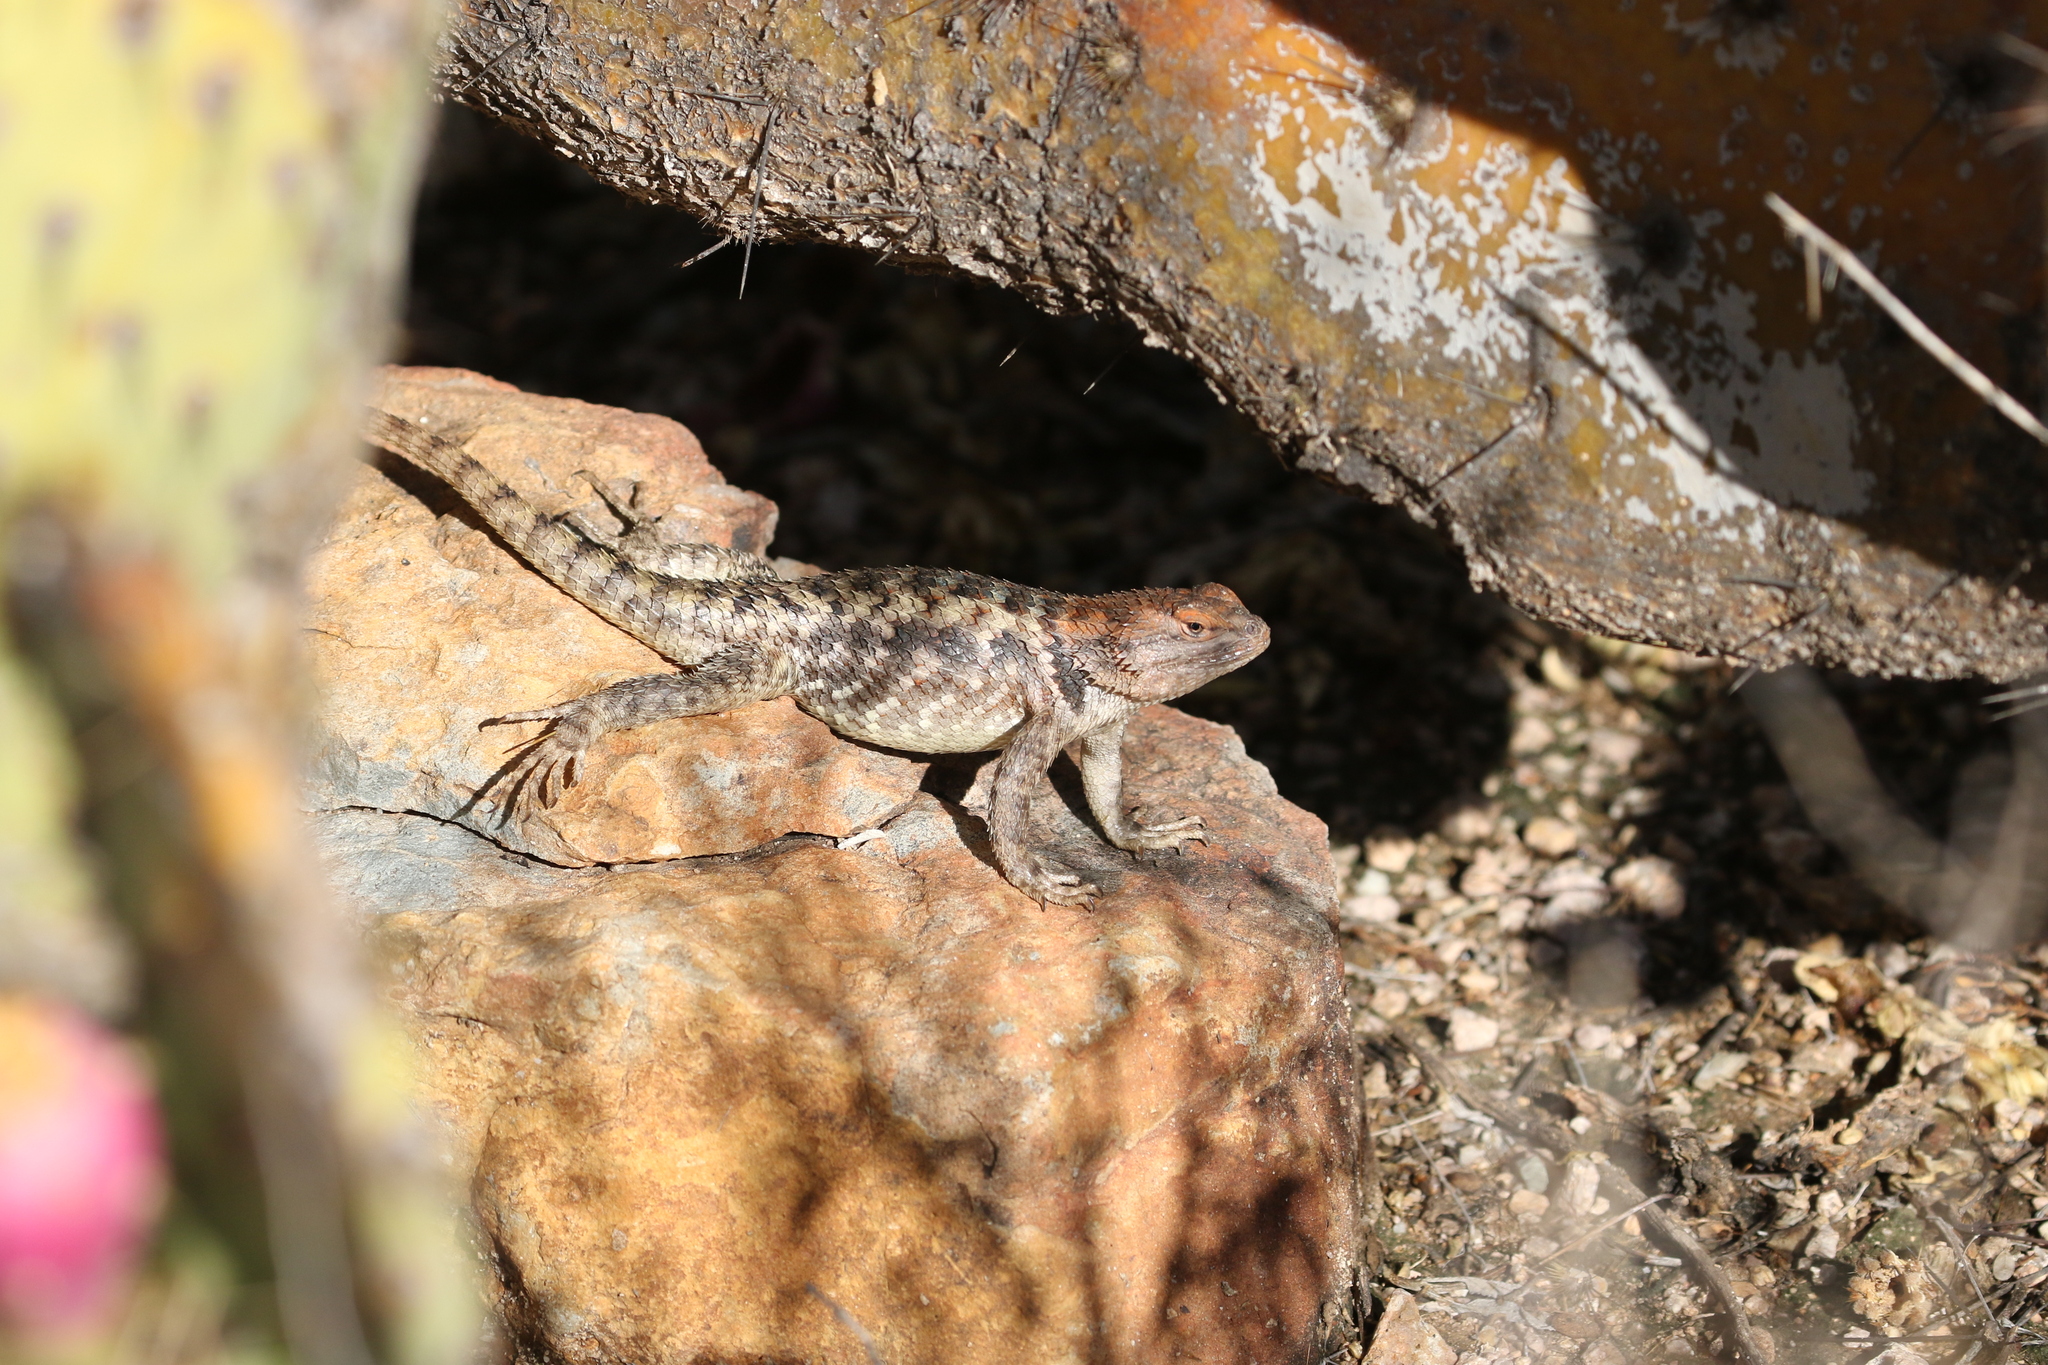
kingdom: Animalia
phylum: Chordata
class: Squamata
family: Phrynosomatidae
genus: Sceloporus
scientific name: Sceloporus magister
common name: Desert spiny lizard
